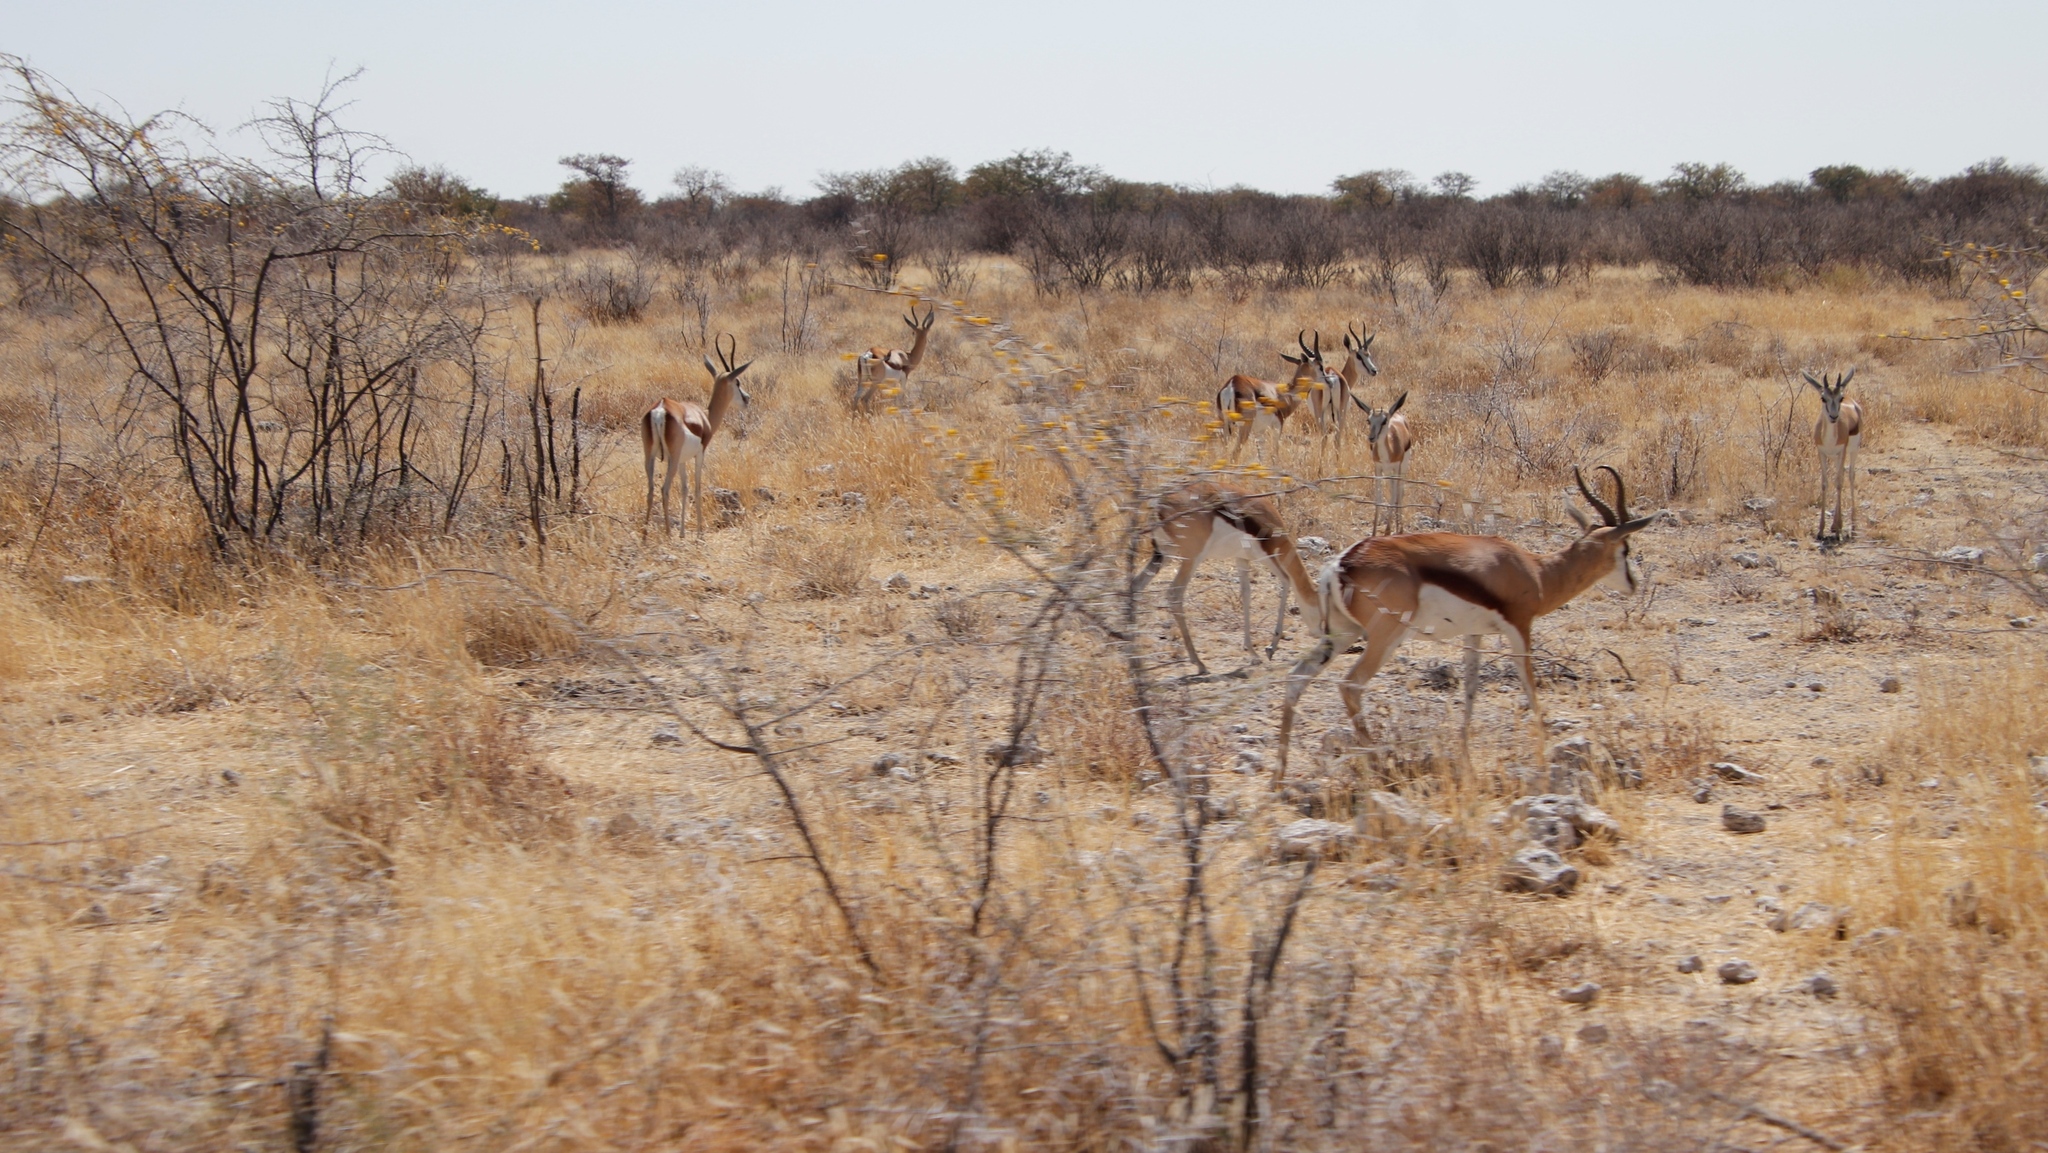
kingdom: Animalia
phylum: Chordata
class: Mammalia
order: Artiodactyla
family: Bovidae
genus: Antidorcas
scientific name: Antidorcas marsupialis
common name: Springbok
